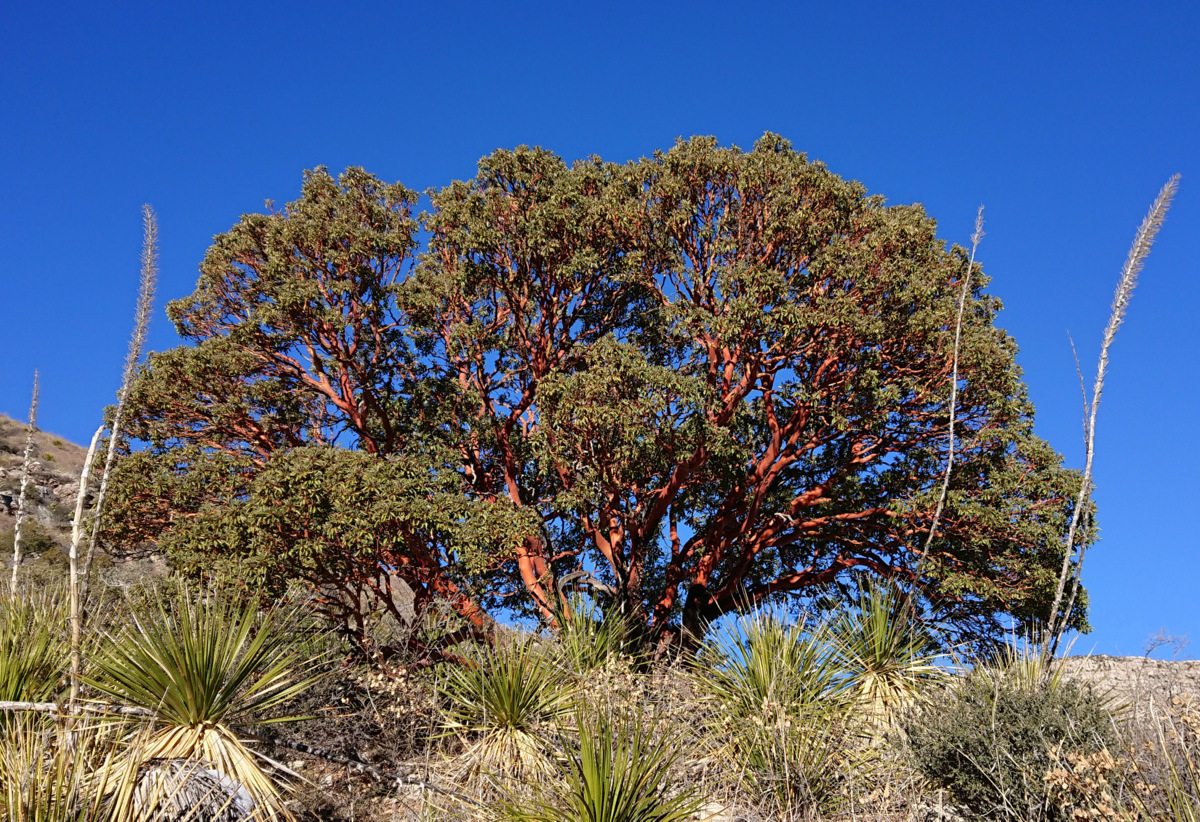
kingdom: Plantae
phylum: Tracheophyta
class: Magnoliopsida
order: Ericales
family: Ericaceae
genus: Arbutus
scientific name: Arbutus xalapensis
